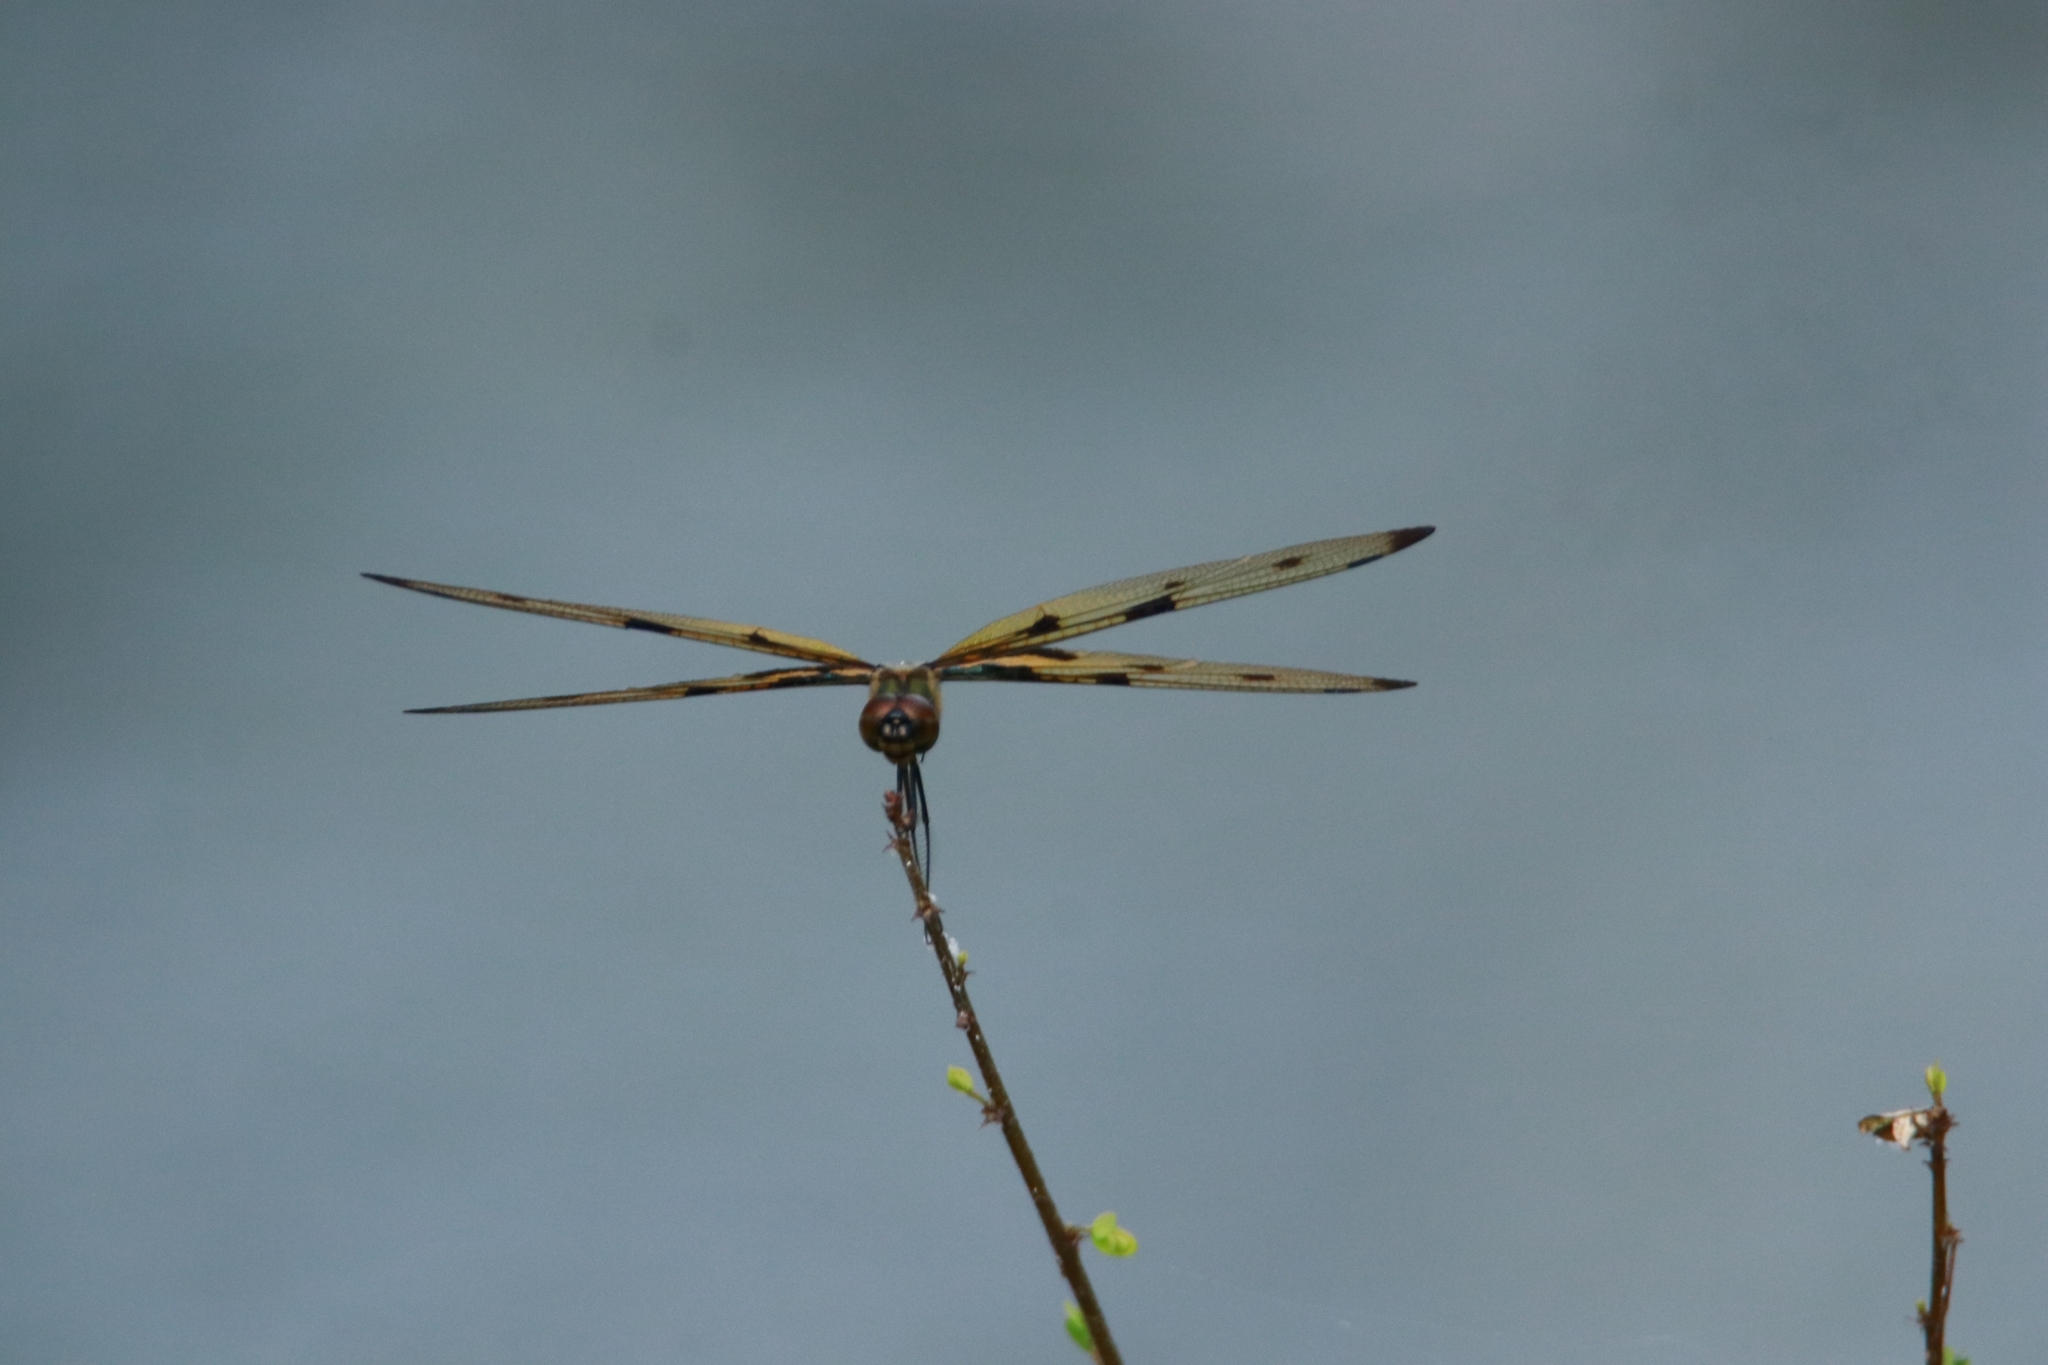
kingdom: Animalia
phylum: Arthropoda
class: Insecta
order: Odonata
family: Libellulidae
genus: Rhyothemis
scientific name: Rhyothemis variegata
